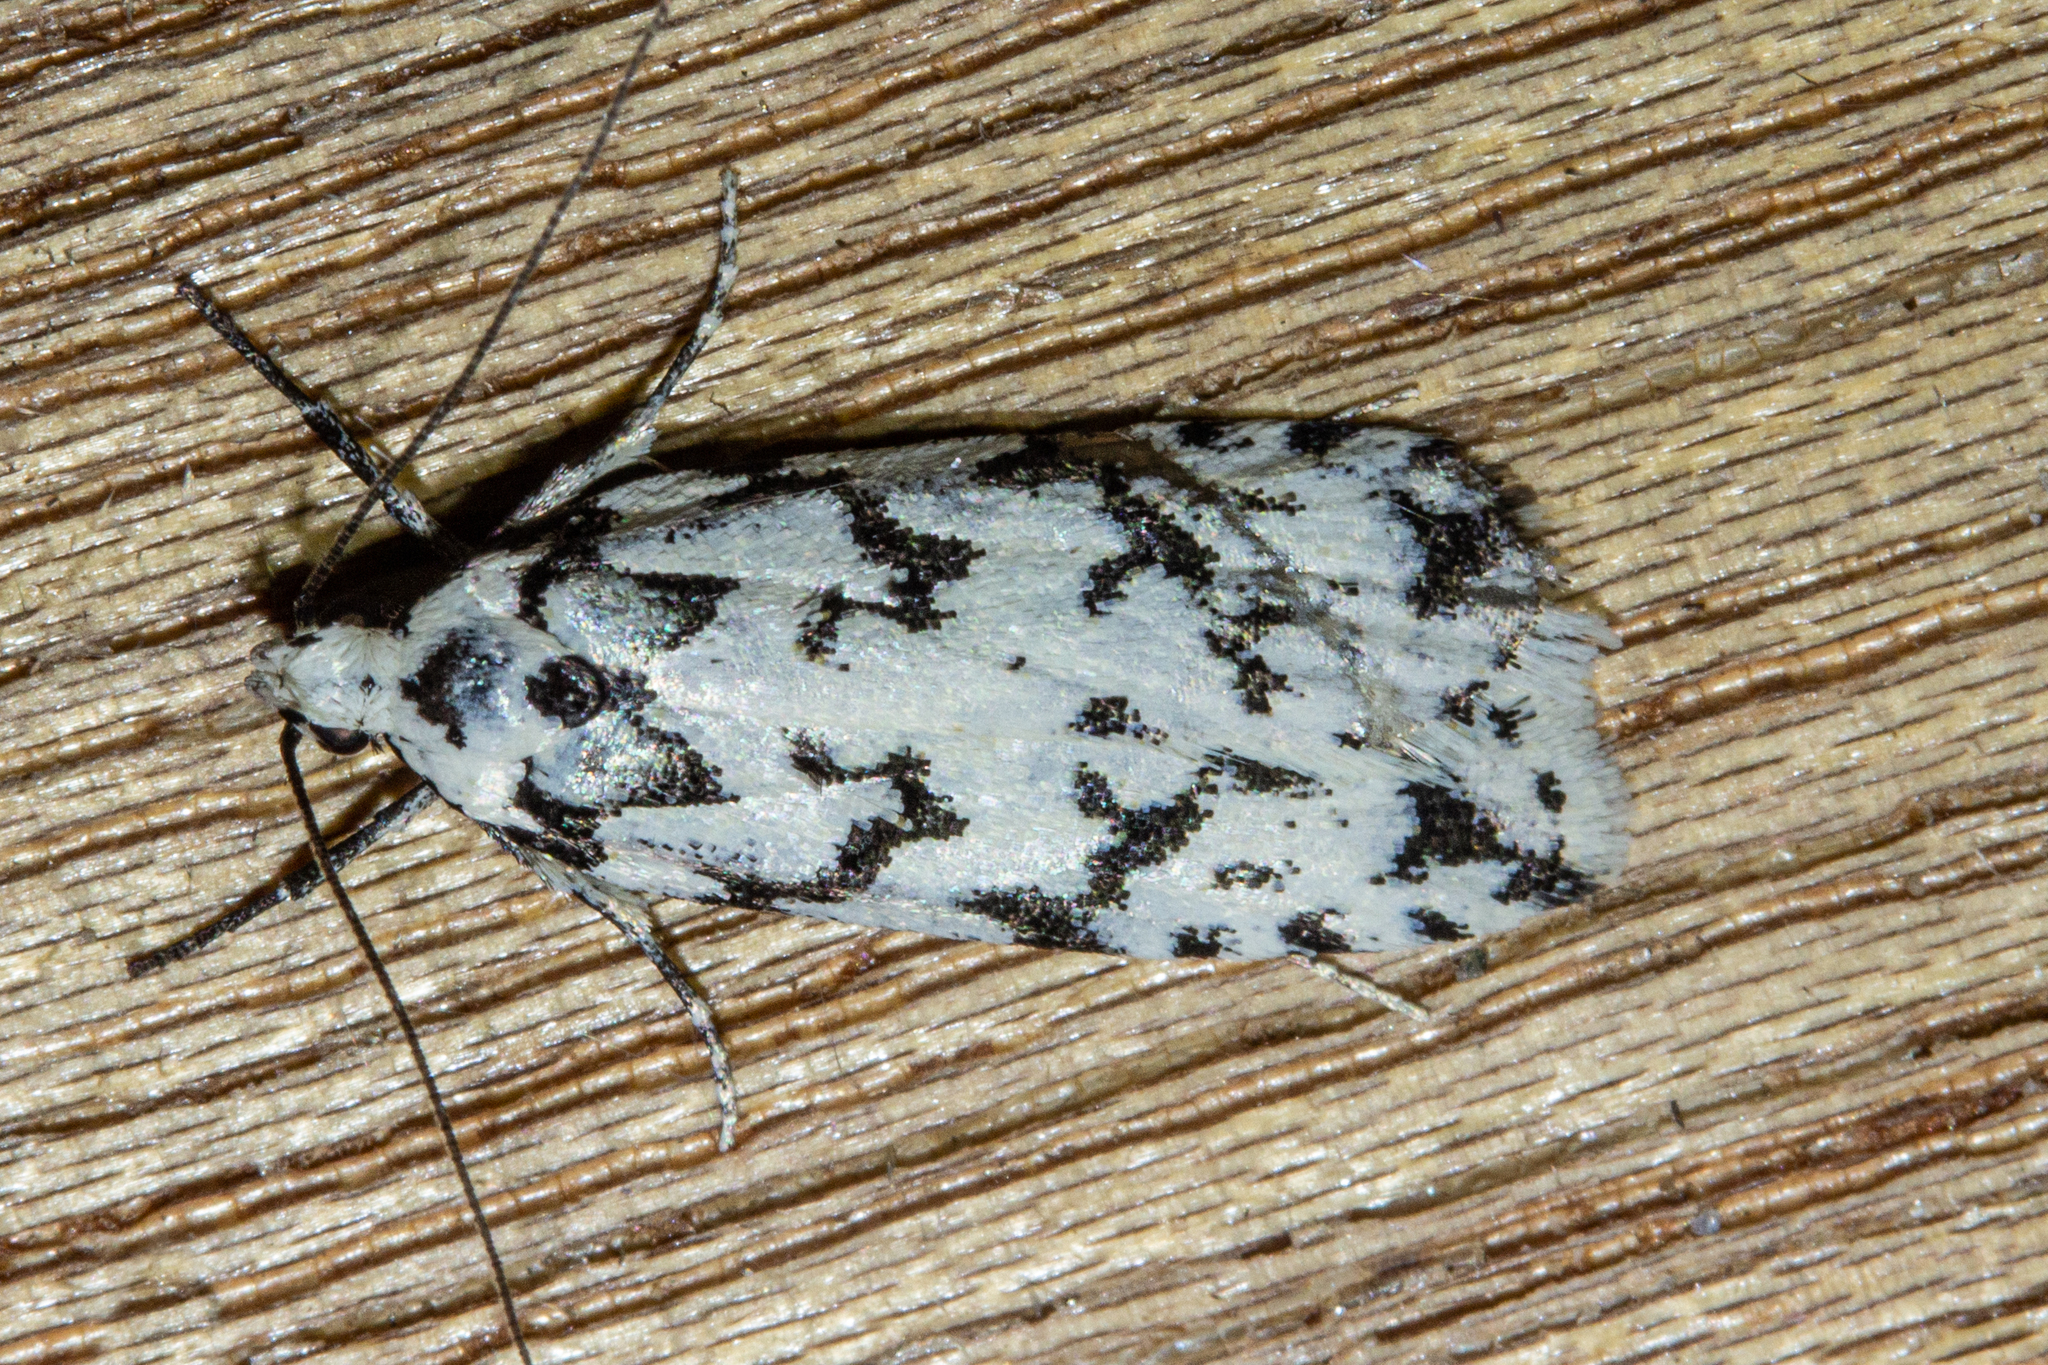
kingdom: Animalia
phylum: Arthropoda
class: Insecta
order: Lepidoptera
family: Oecophoridae
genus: Izatha
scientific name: Izatha katadiktya
